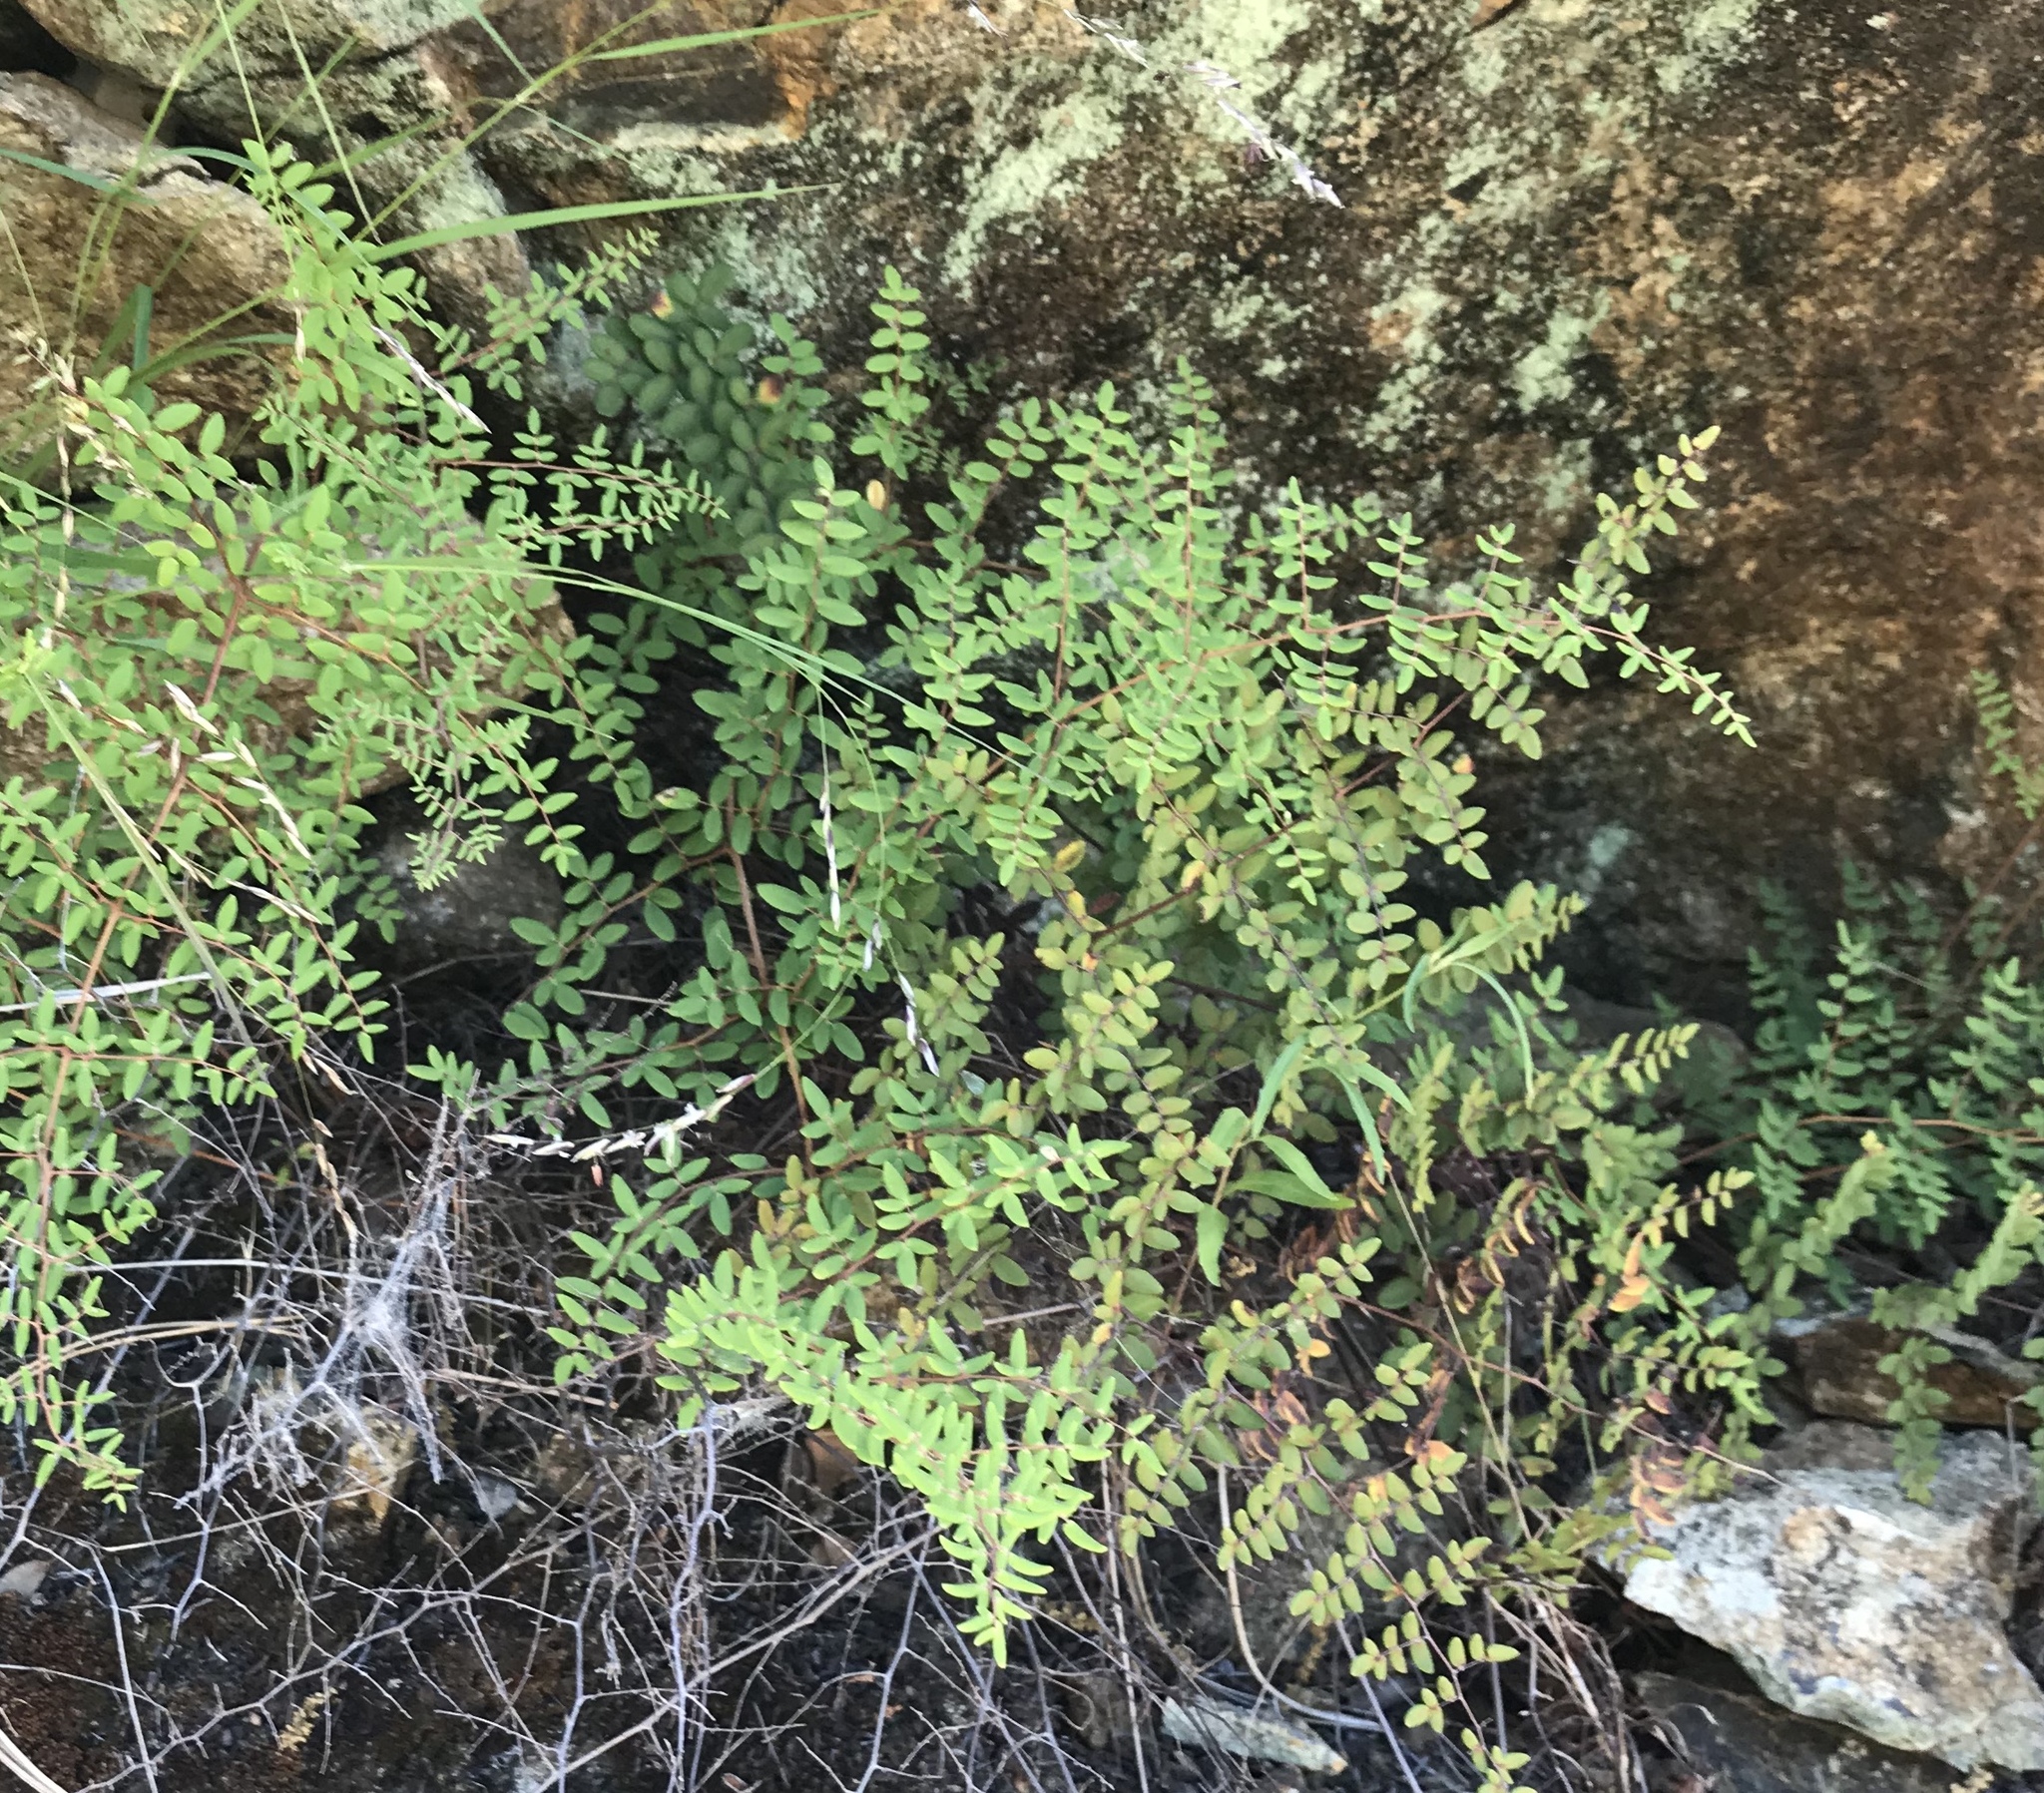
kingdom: Plantae
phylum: Tracheophyta
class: Polypodiopsida
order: Polypodiales
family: Pteridaceae
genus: Pellaea
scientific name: Pellaea andromedifolia
